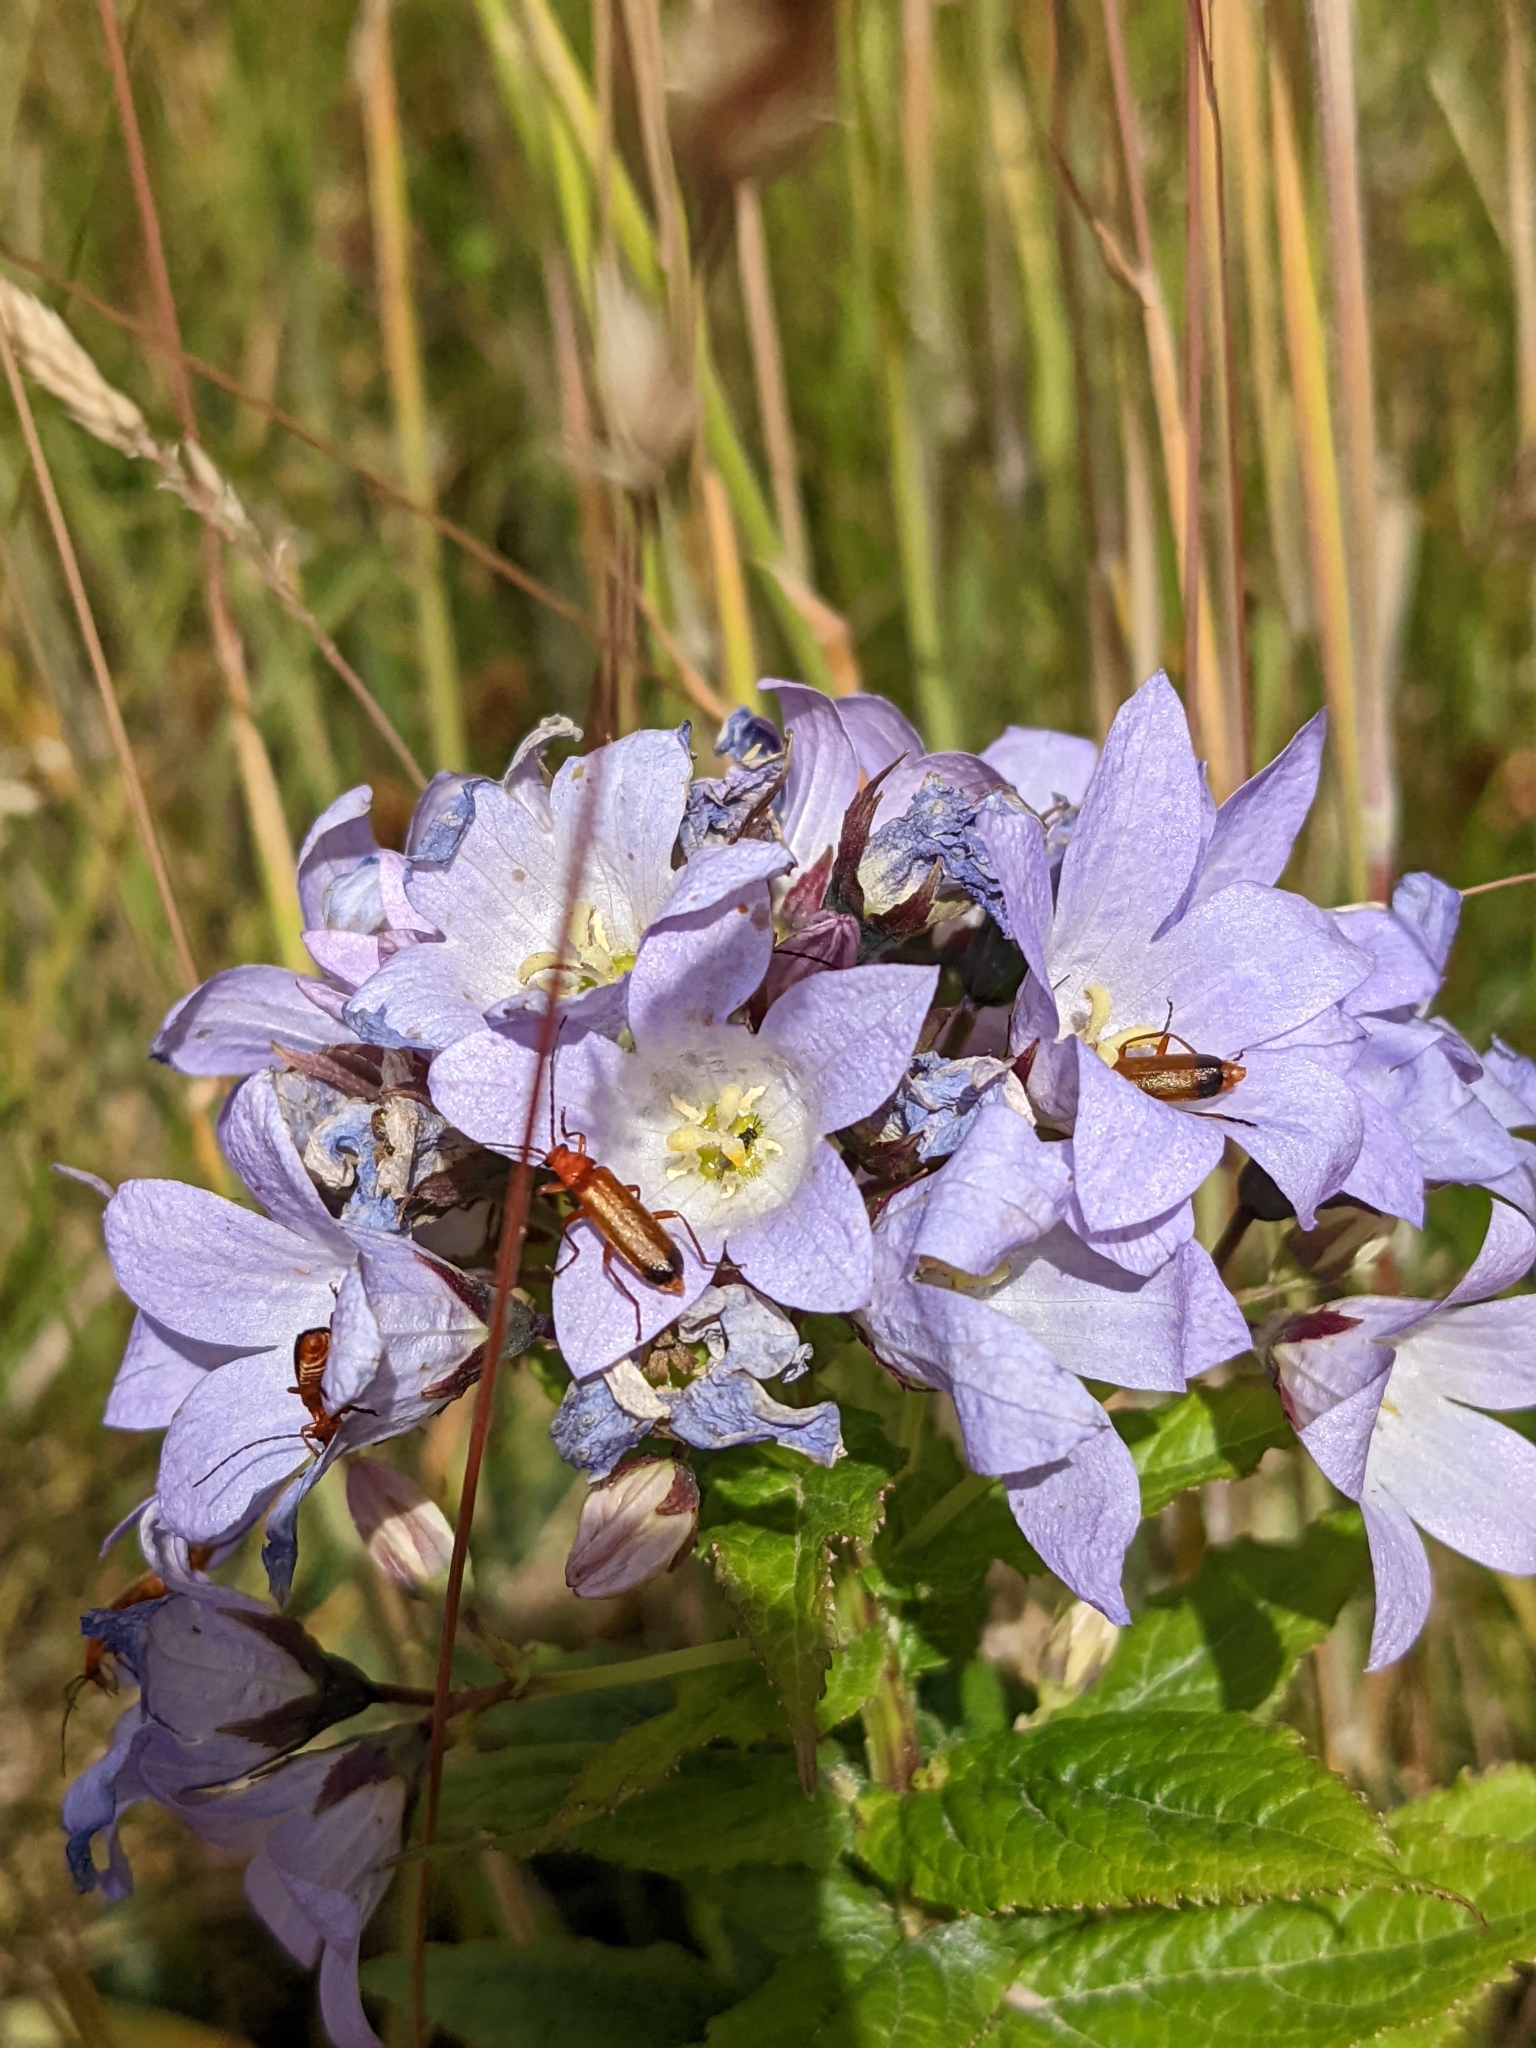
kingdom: Plantae
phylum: Tracheophyta
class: Magnoliopsida
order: Asterales
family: Campanulaceae
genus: Campanula
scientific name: Campanula lactiflora
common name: Milky bellflower
